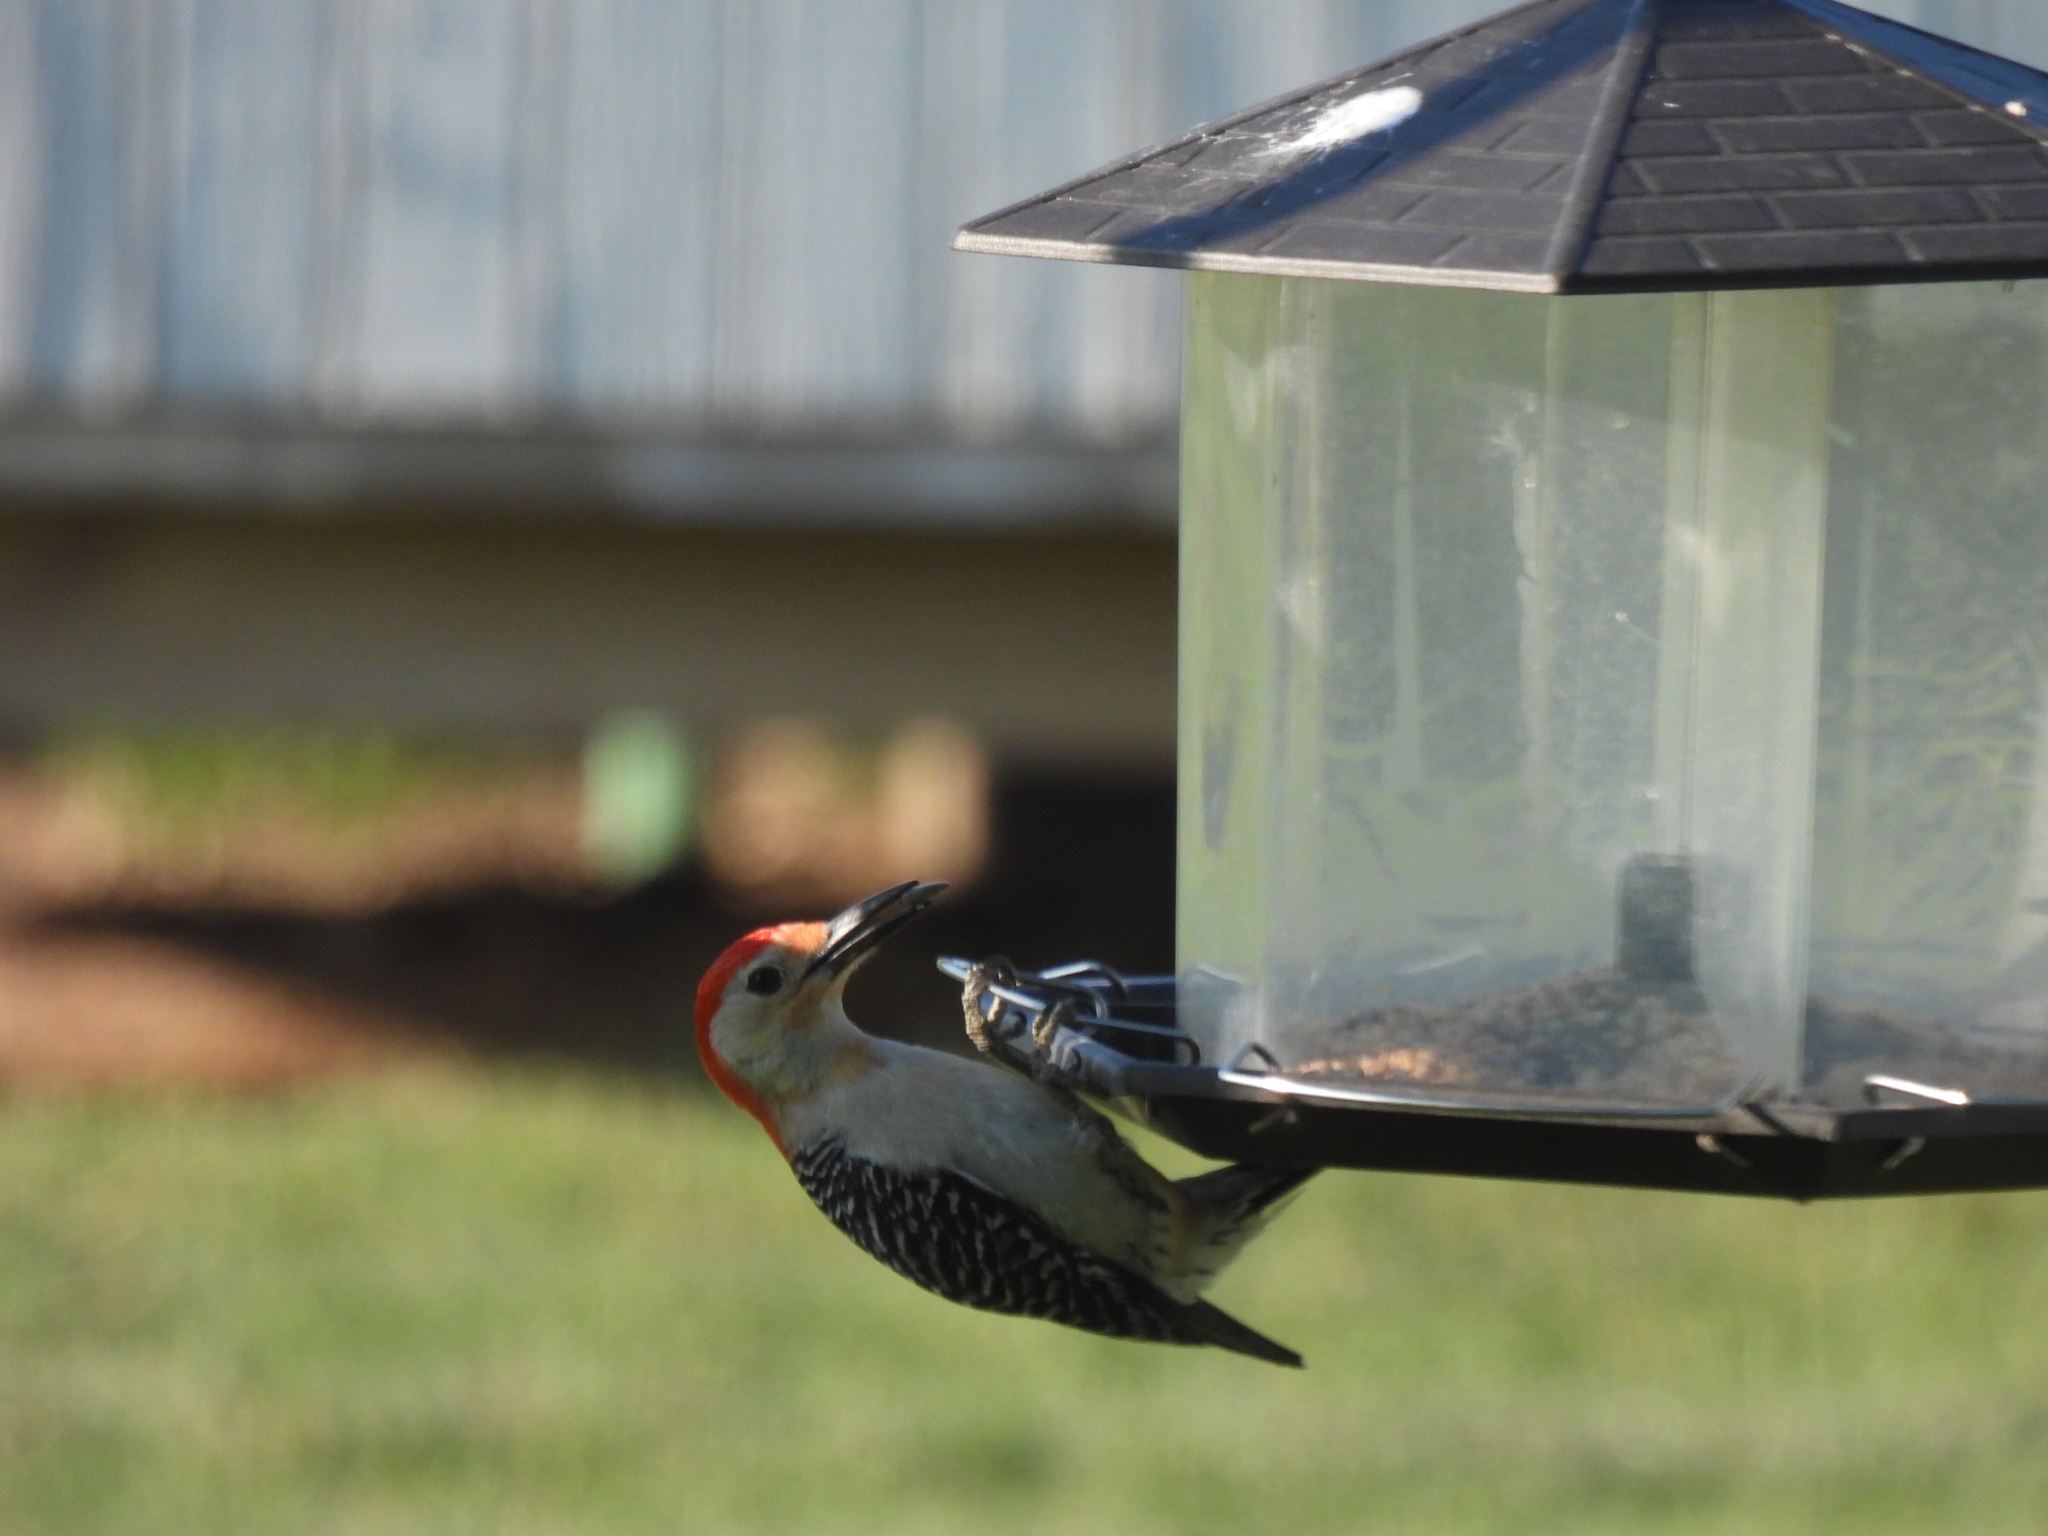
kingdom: Animalia
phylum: Chordata
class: Aves
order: Piciformes
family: Picidae
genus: Melanerpes
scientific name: Melanerpes carolinus
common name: Red-bellied woodpecker
